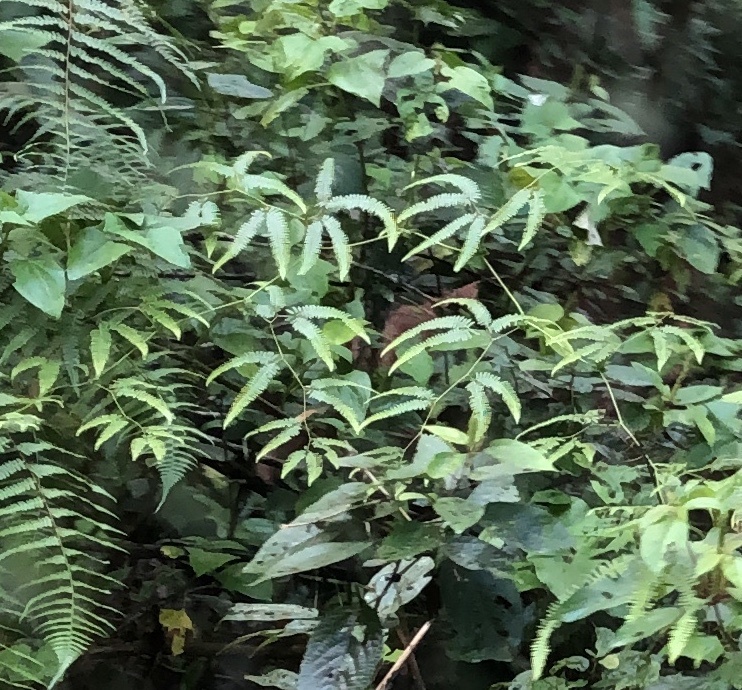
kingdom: Plantae
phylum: Tracheophyta
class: Polypodiopsida
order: Gleicheniales
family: Gleicheniaceae
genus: Gleichenella
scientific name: Gleichenella pectinata
